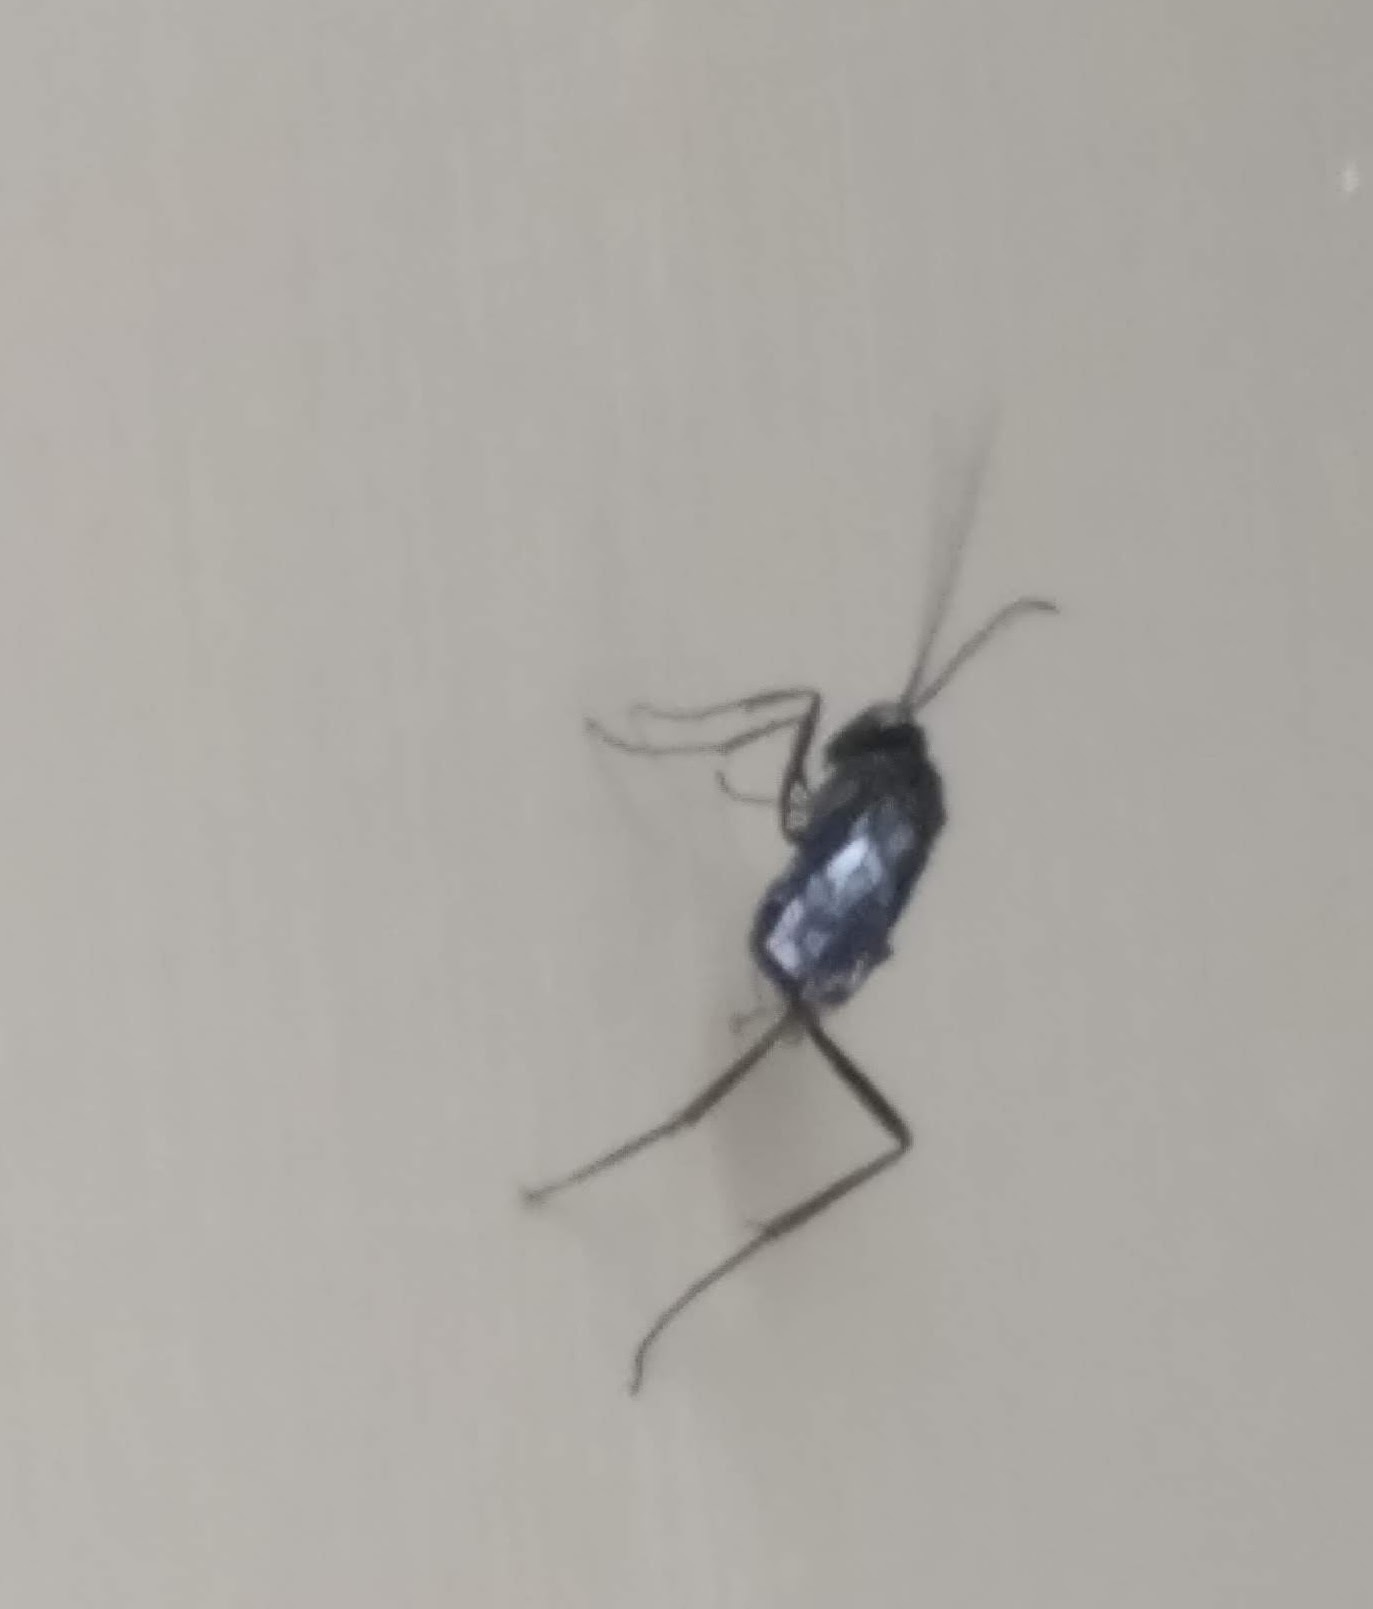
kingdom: Animalia
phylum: Arthropoda
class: Insecta
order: Hymenoptera
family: Evaniidae
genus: Evania
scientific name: Evania appendigaster
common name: Ensign wasp
